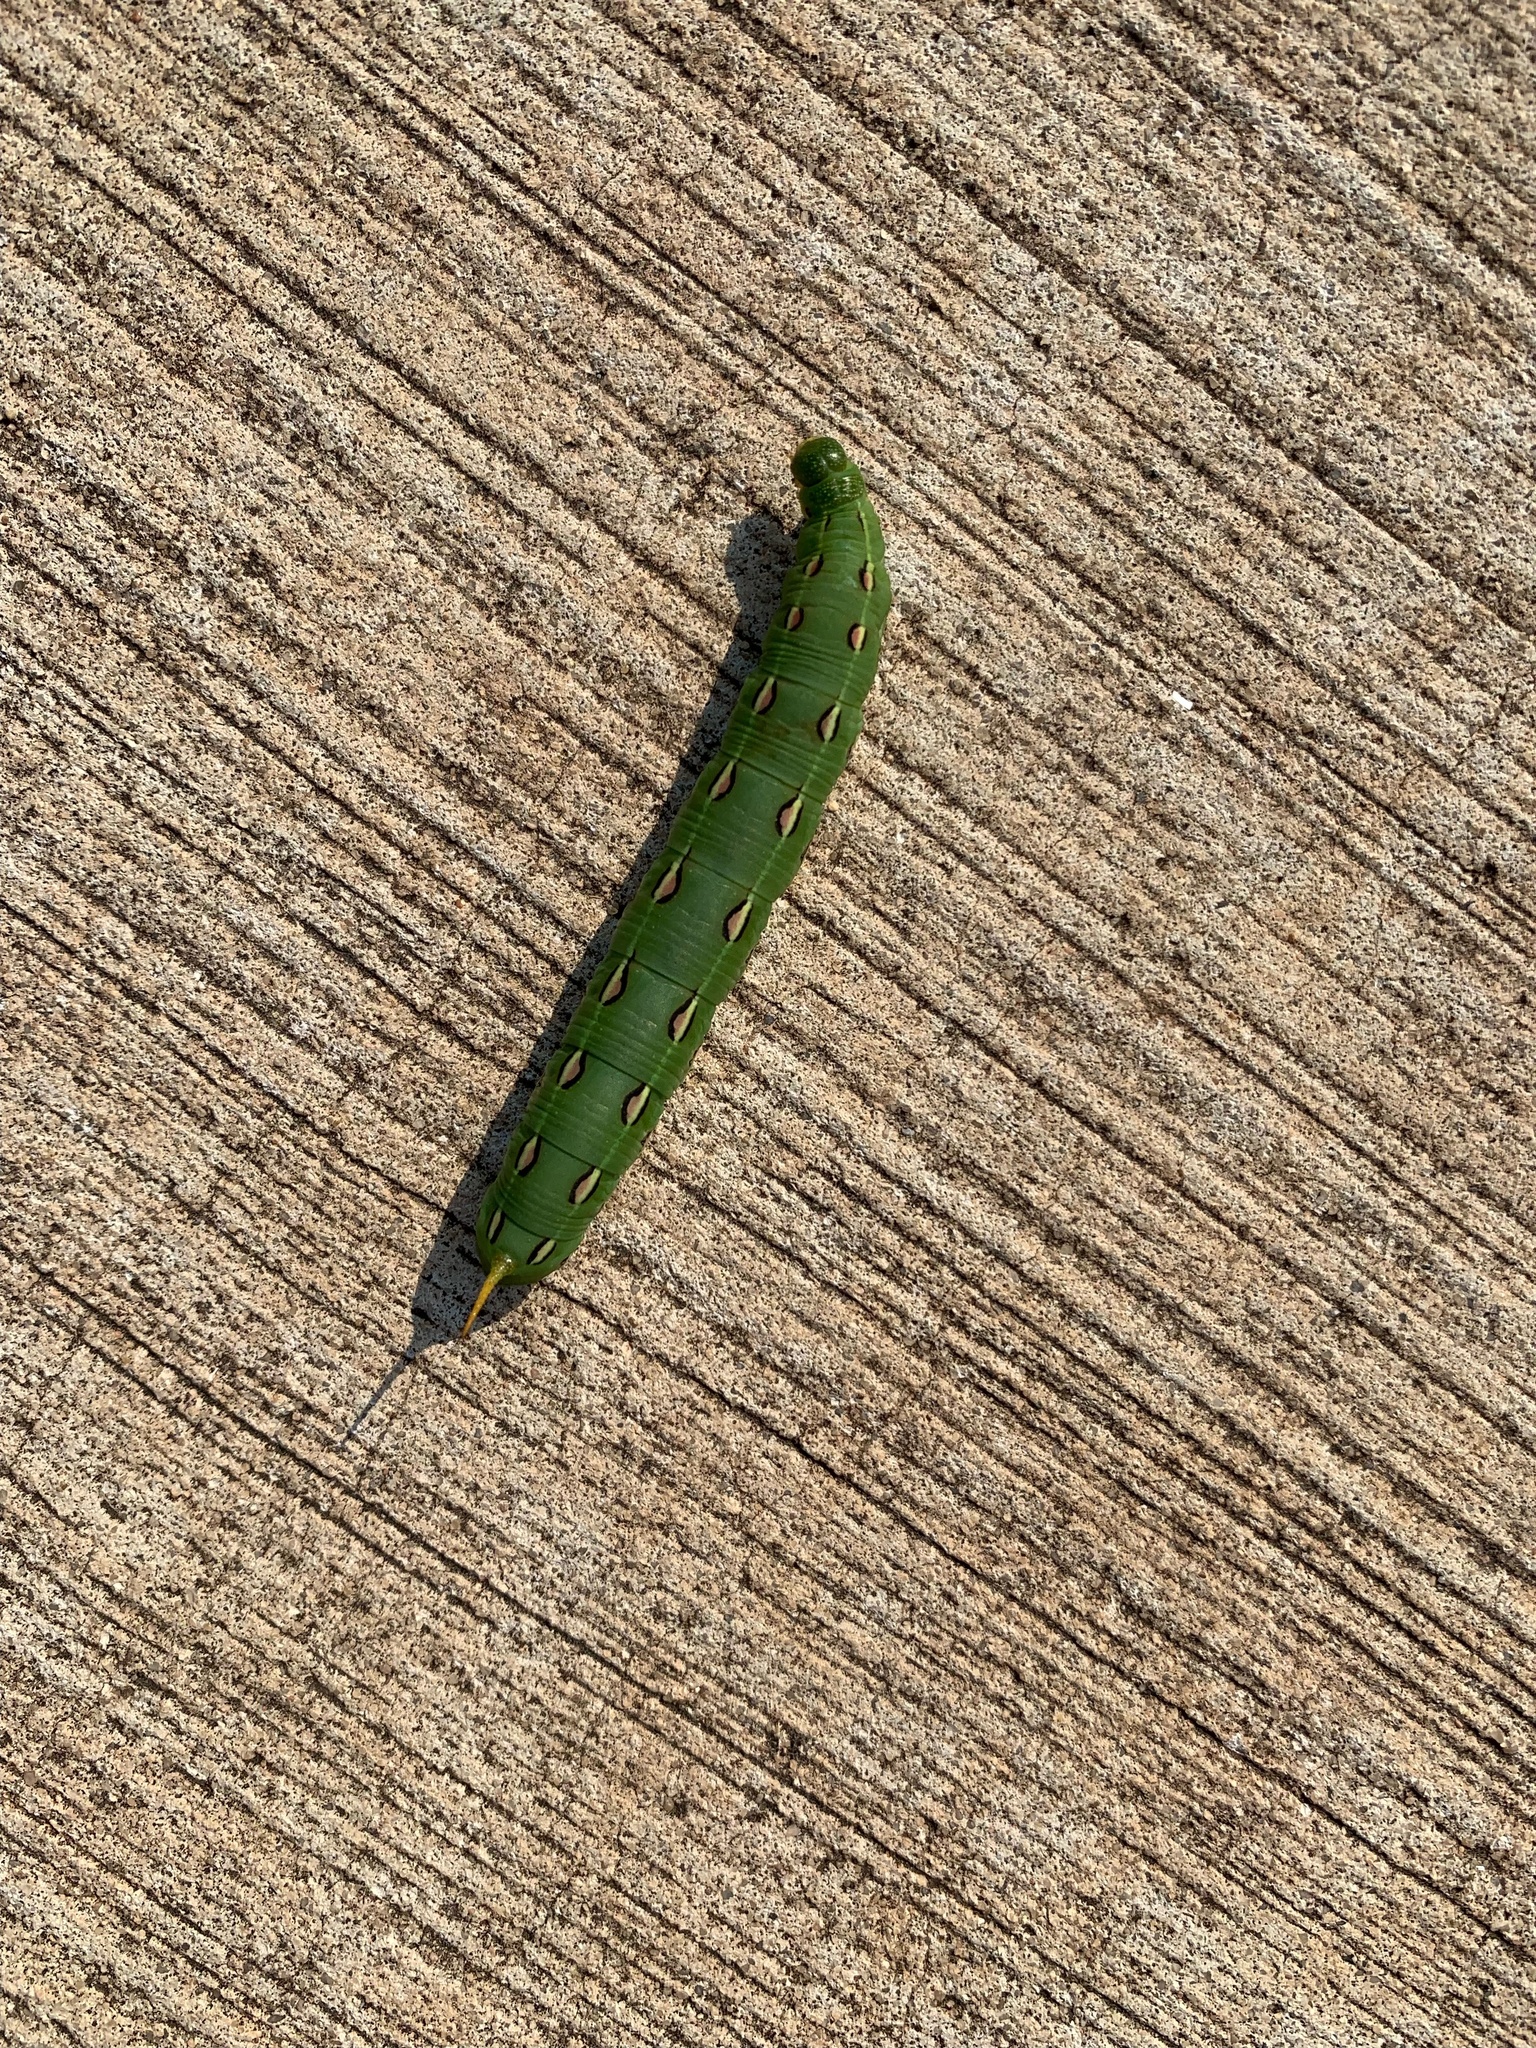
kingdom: Animalia
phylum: Arthropoda
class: Insecta
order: Lepidoptera
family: Sphingidae
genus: Hyles
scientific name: Hyles lineata
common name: White-lined sphinx
